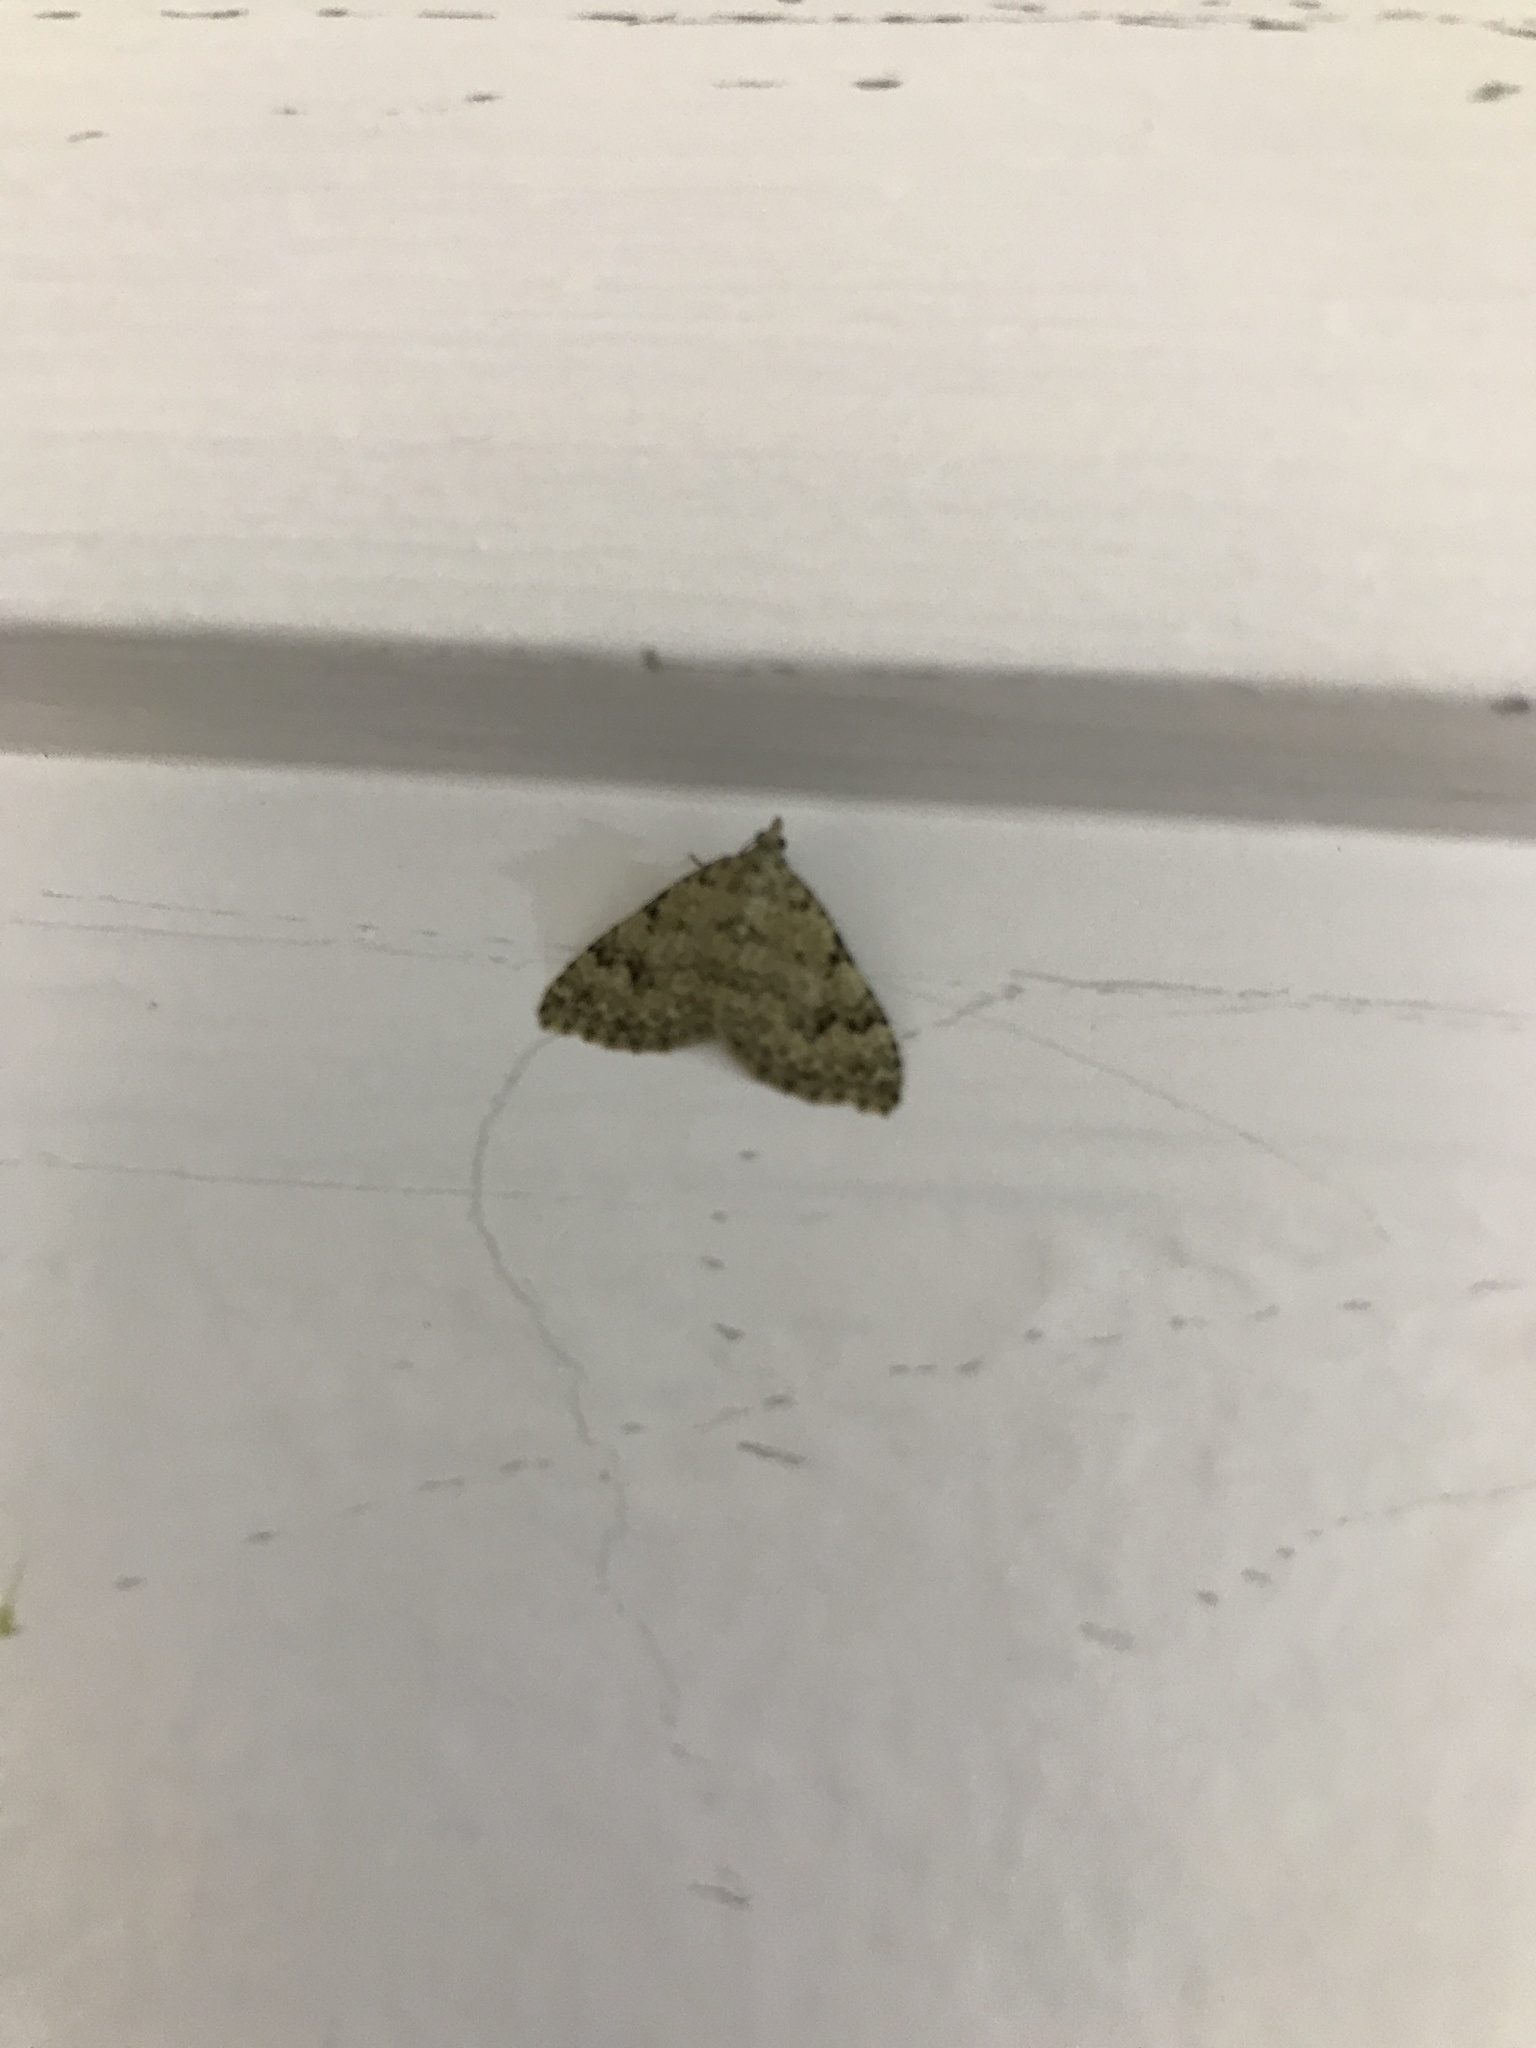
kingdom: Animalia
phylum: Arthropoda
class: Insecta
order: Lepidoptera
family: Geometridae
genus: Helastia
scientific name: Helastia cinerearia
